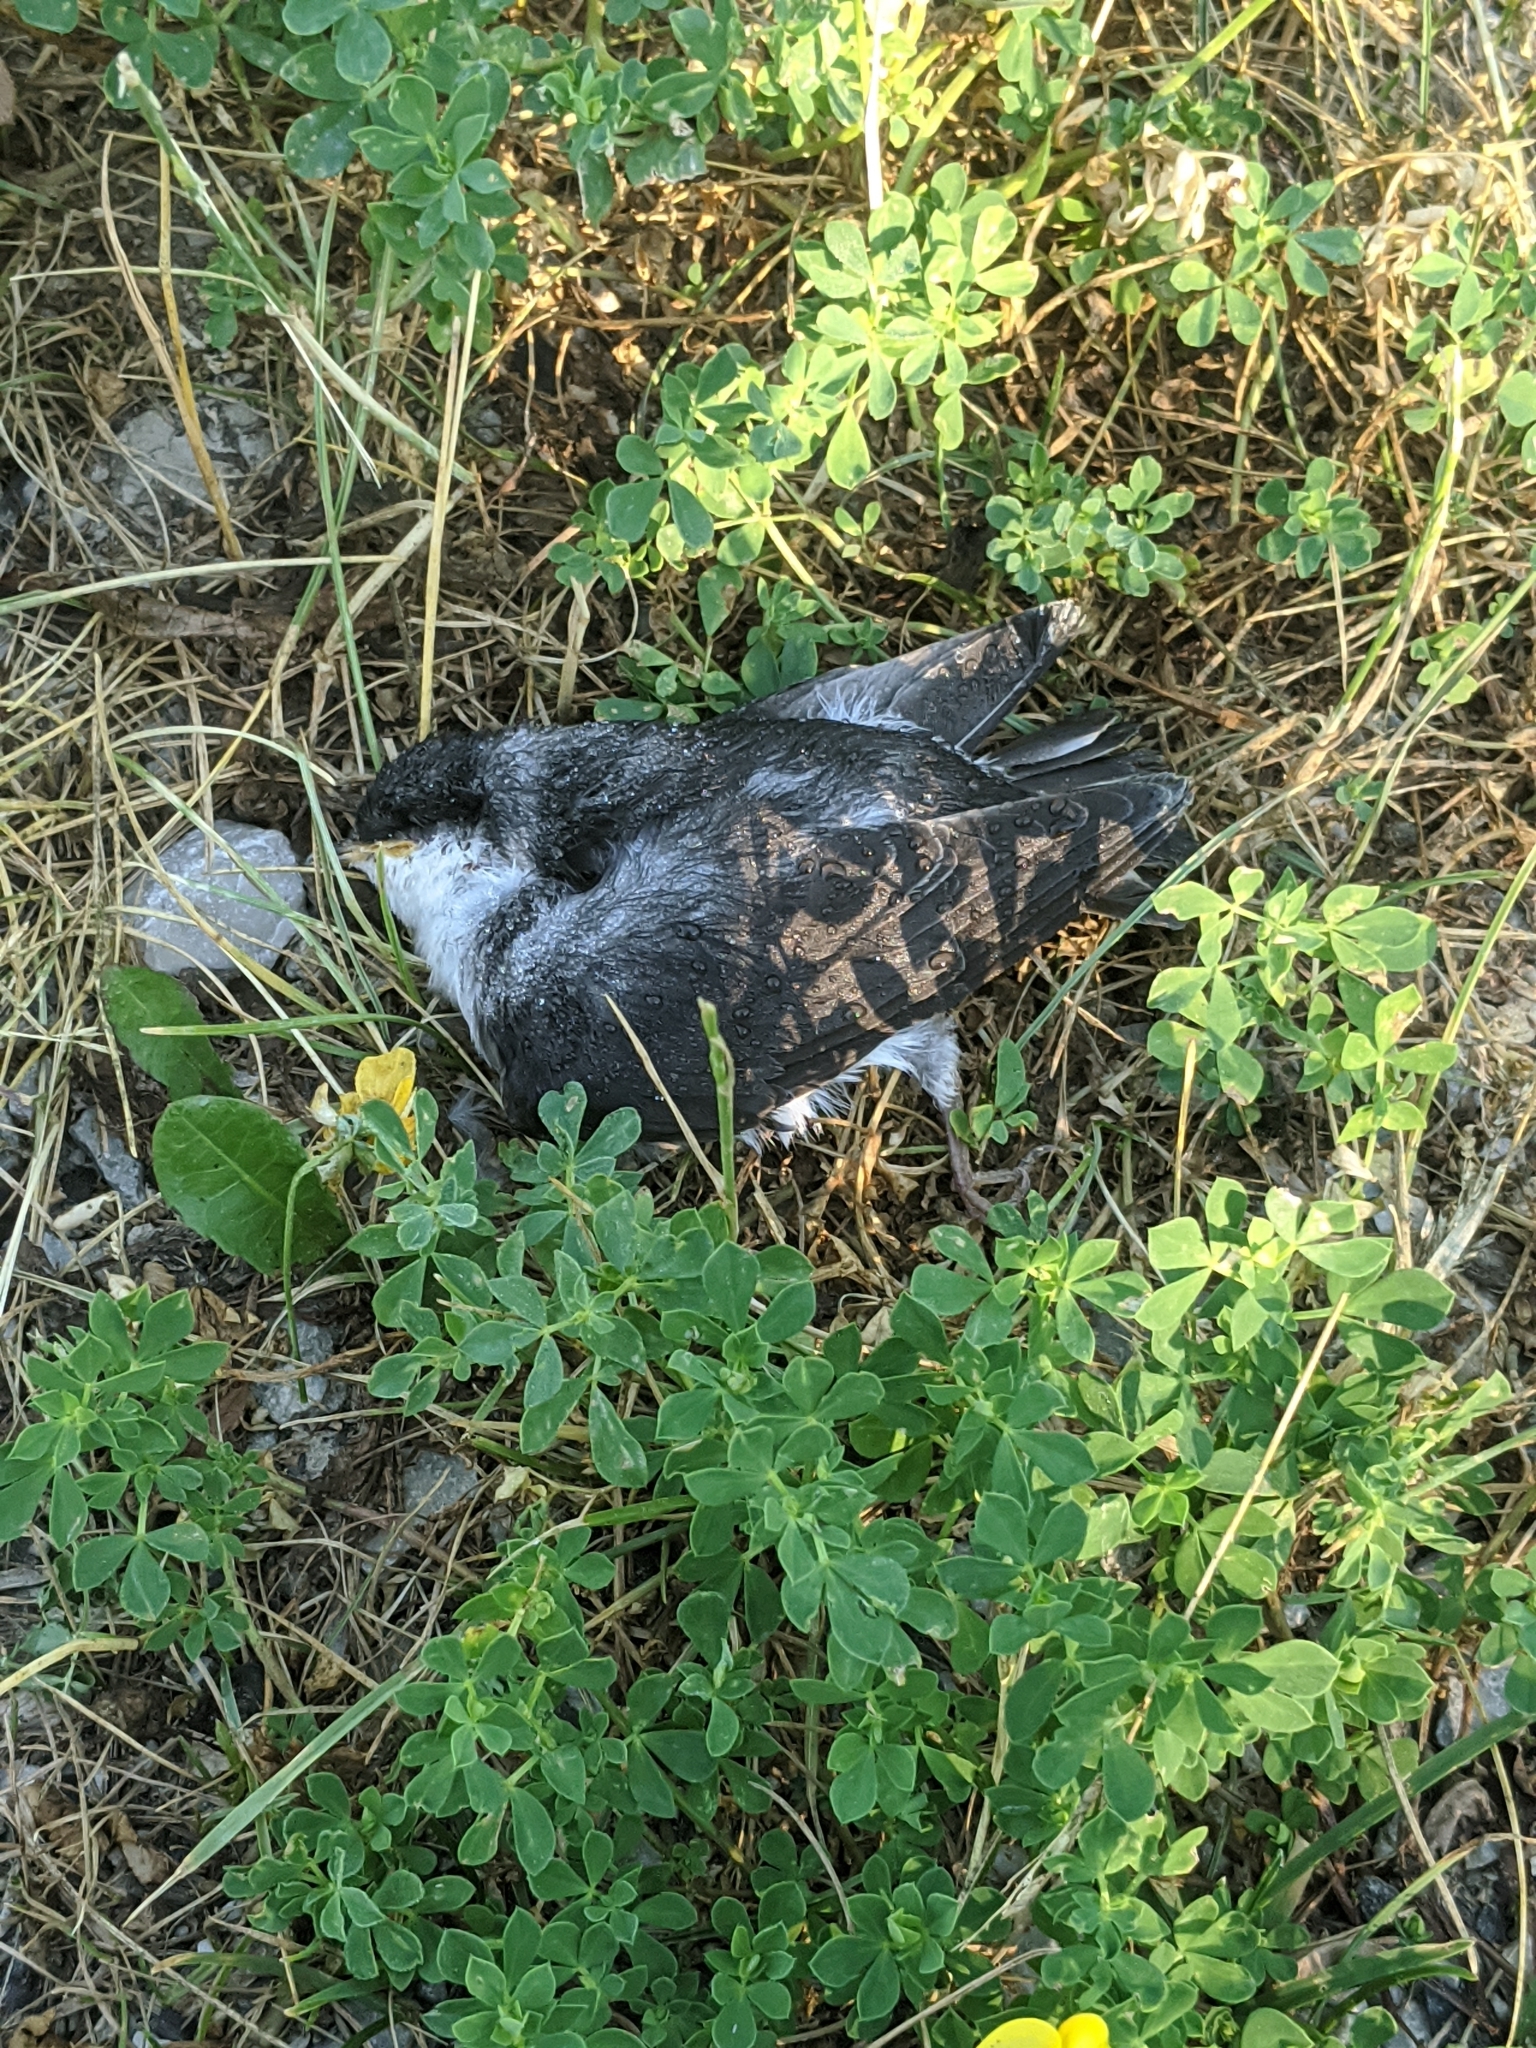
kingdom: Animalia
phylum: Chordata
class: Aves
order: Passeriformes
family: Tyrannidae
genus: Tyrannus
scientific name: Tyrannus tyrannus
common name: Eastern kingbird
